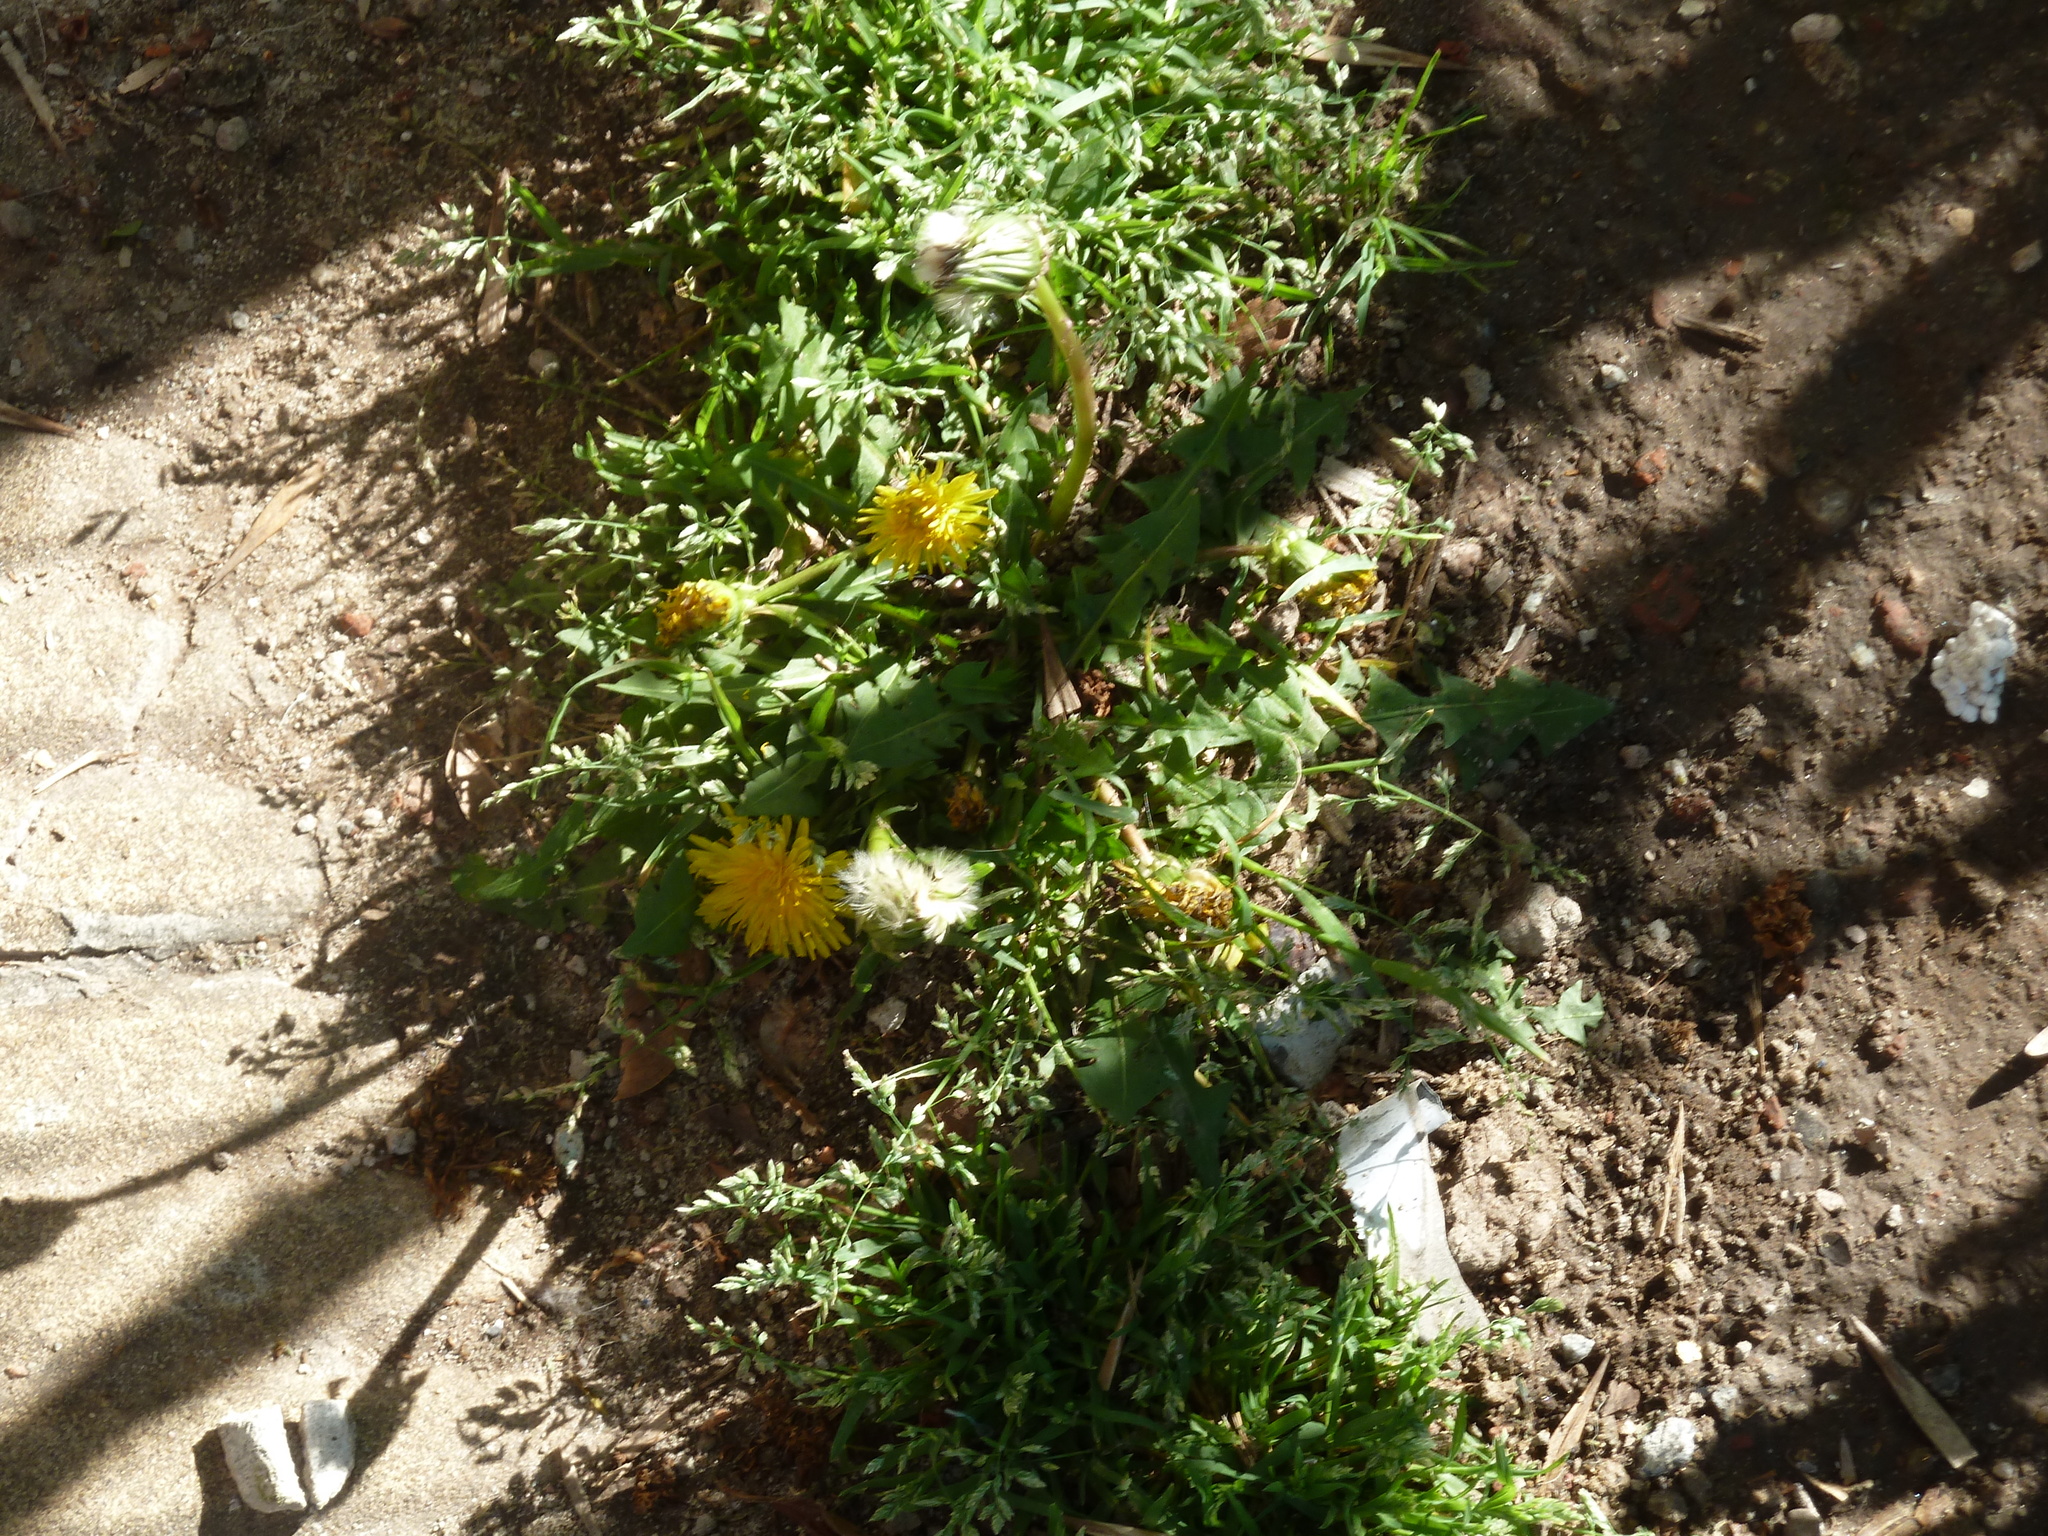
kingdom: Plantae
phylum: Tracheophyta
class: Magnoliopsida
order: Asterales
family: Asteraceae
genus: Taraxacum
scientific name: Taraxacum officinale
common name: Common dandelion
